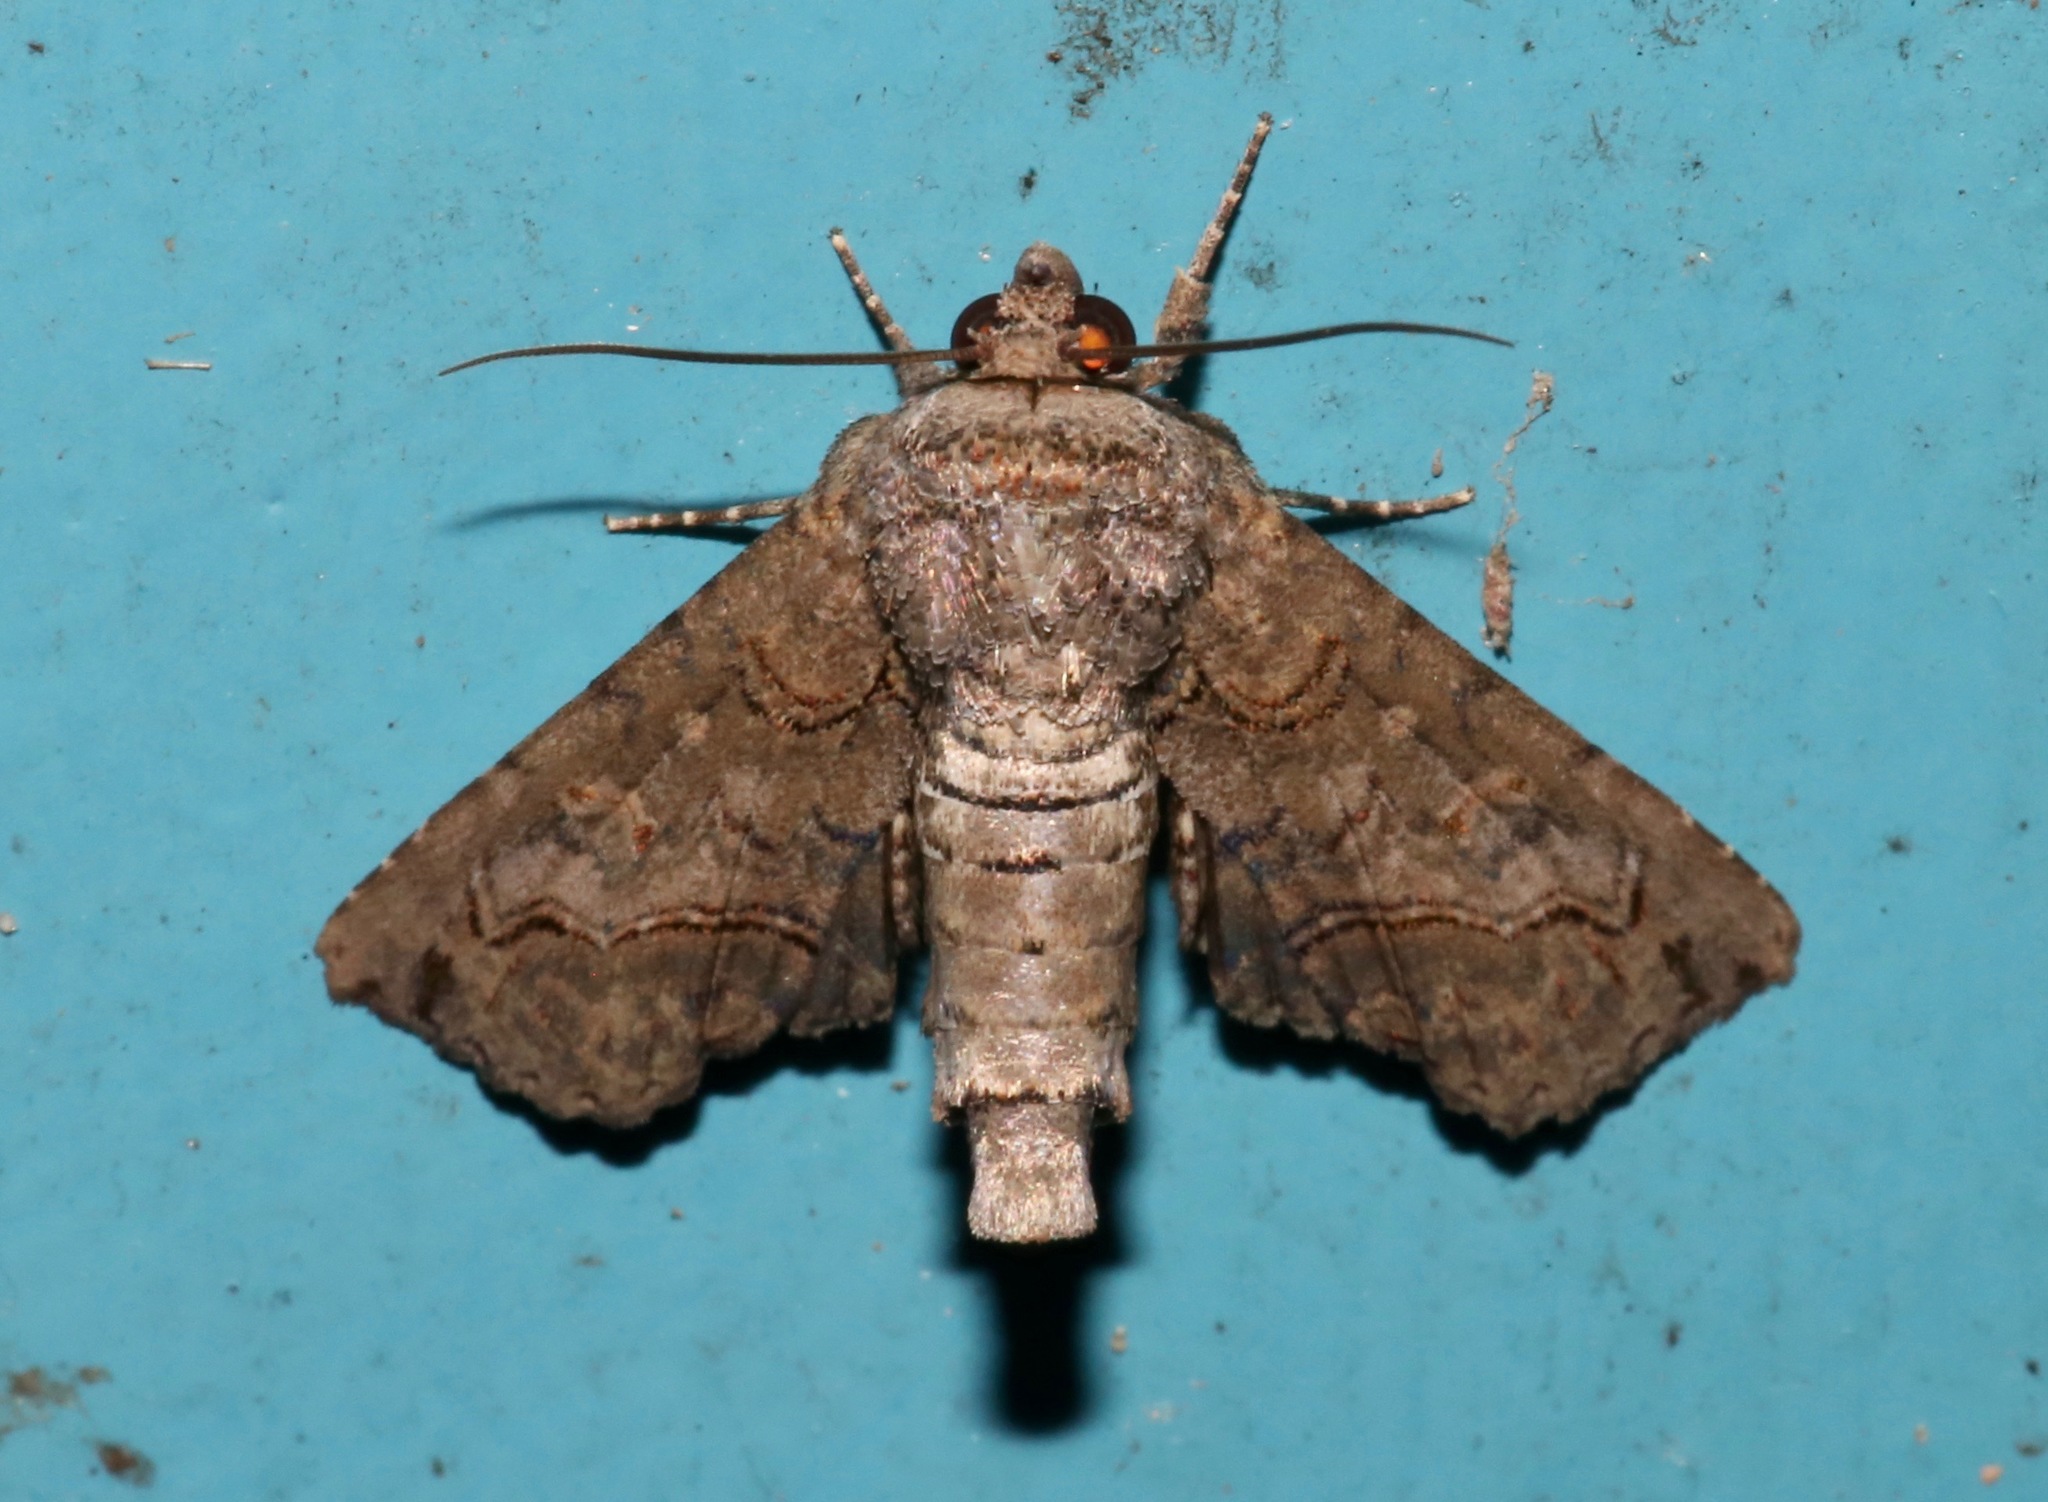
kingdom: Animalia
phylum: Arthropoda
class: Insecta
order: Lepidoptera
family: Euteliidae
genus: Paectes
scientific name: Paectes abrostoloides
